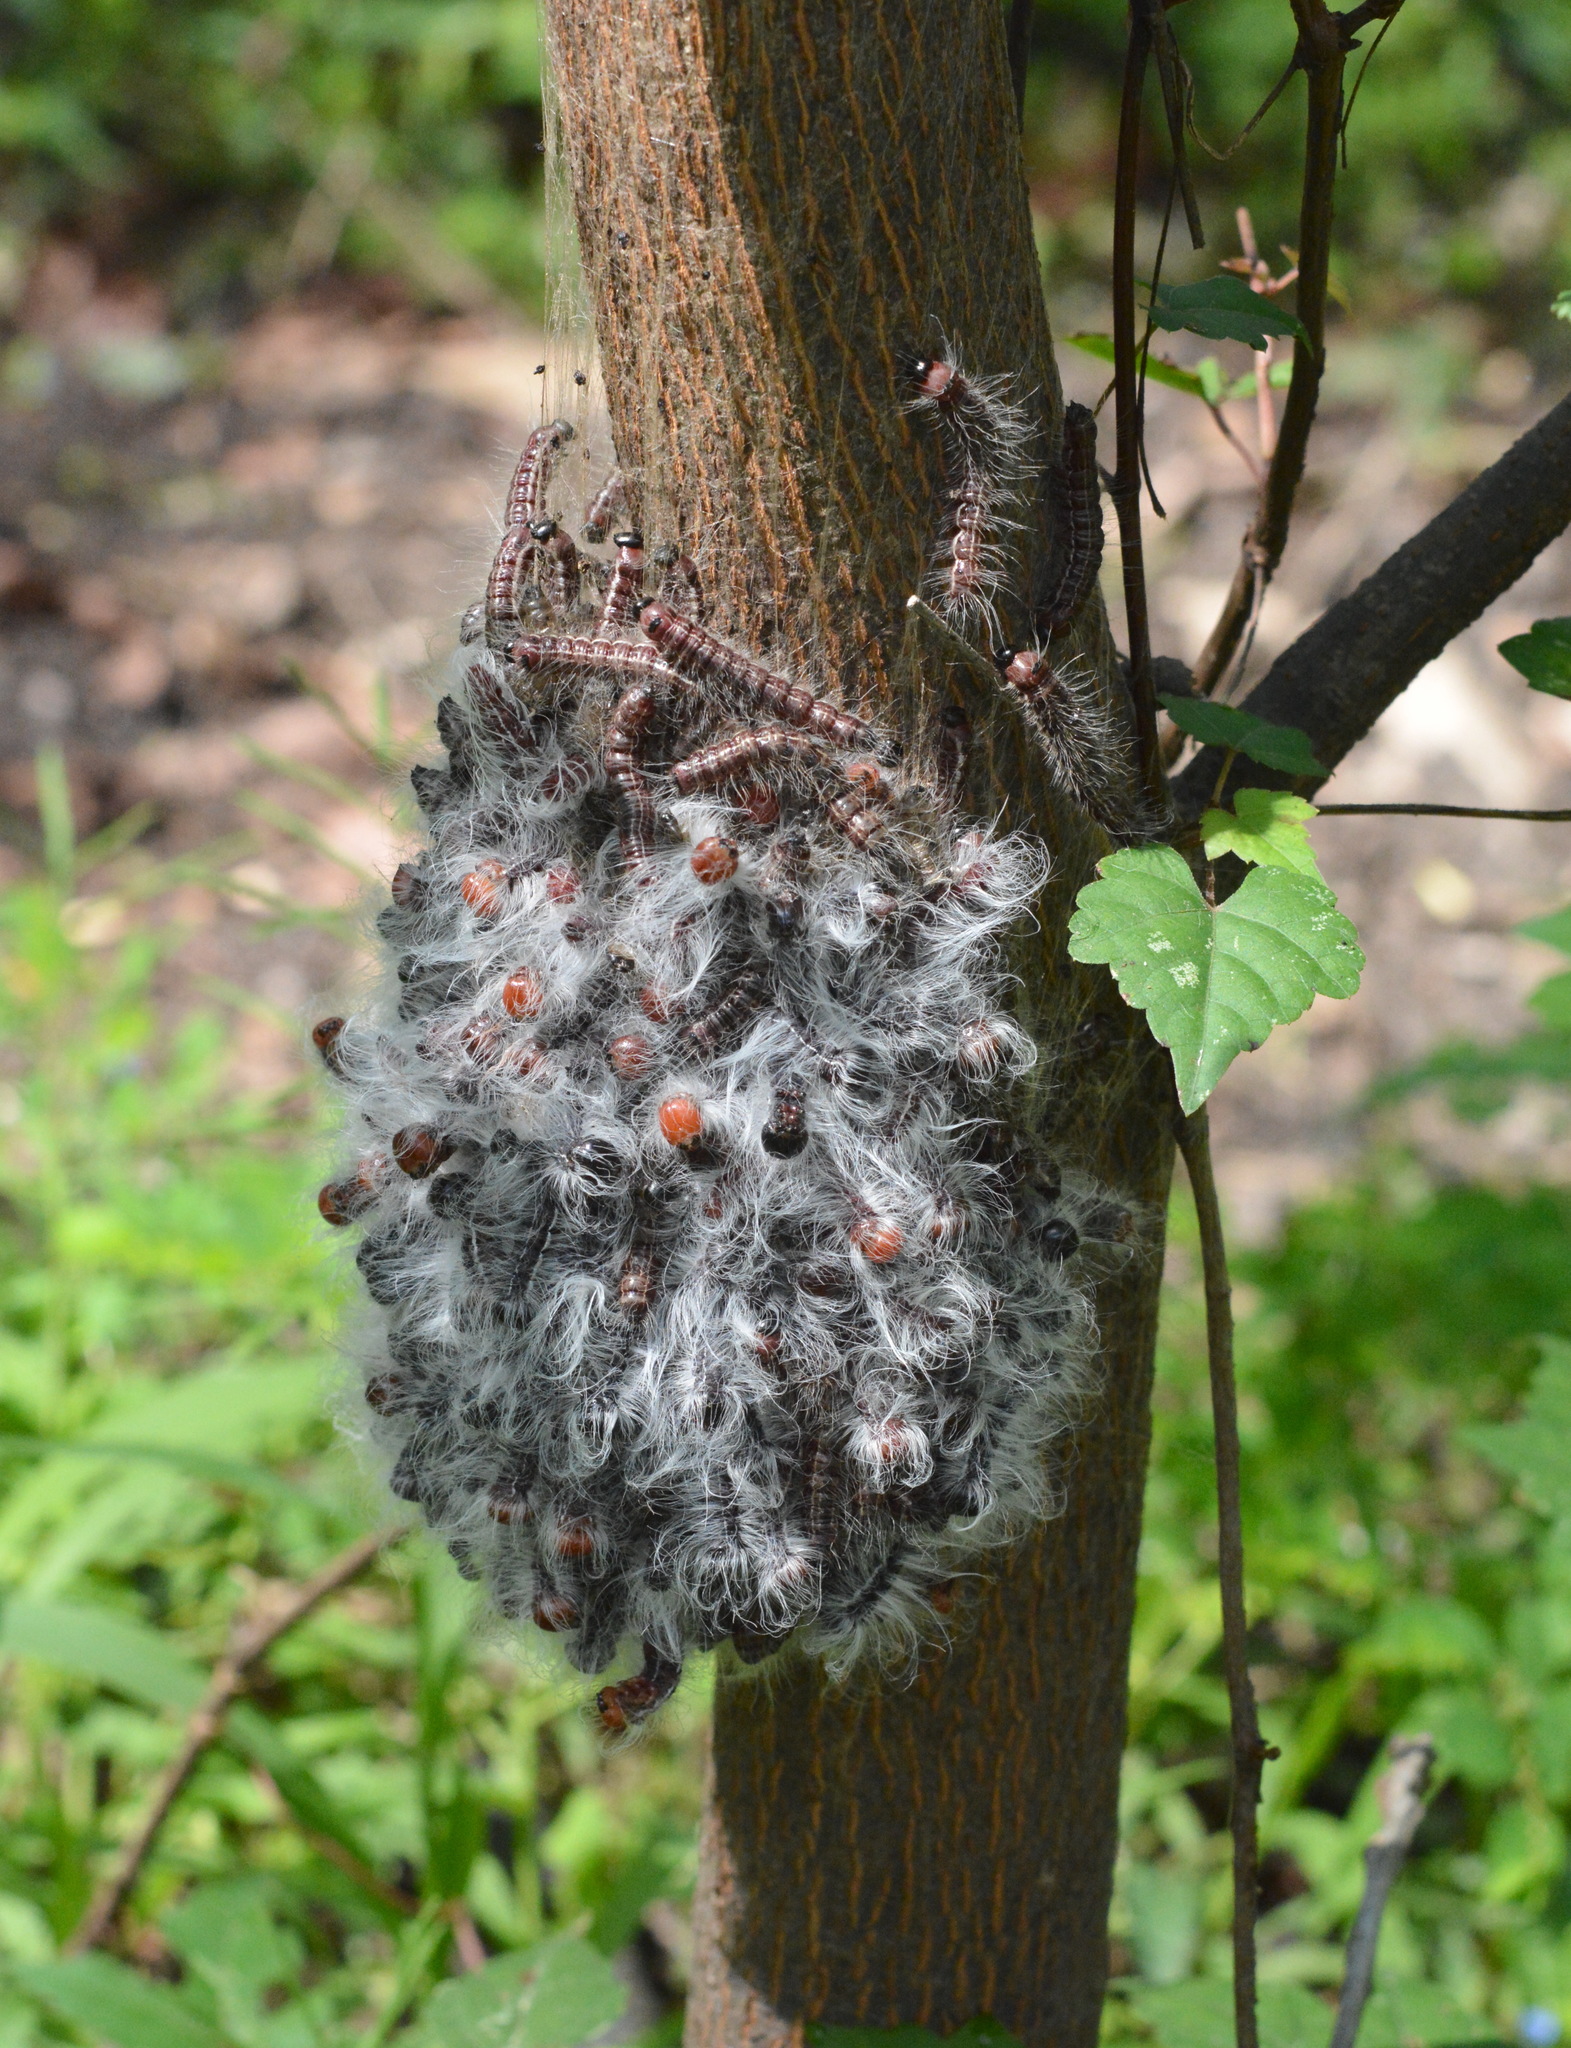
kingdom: Animalia
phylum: Arthropoda
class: Insecta
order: Lepidoptera
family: Notodontidae
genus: Datana
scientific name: Datana integerrima
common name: Walnut caterpillar
